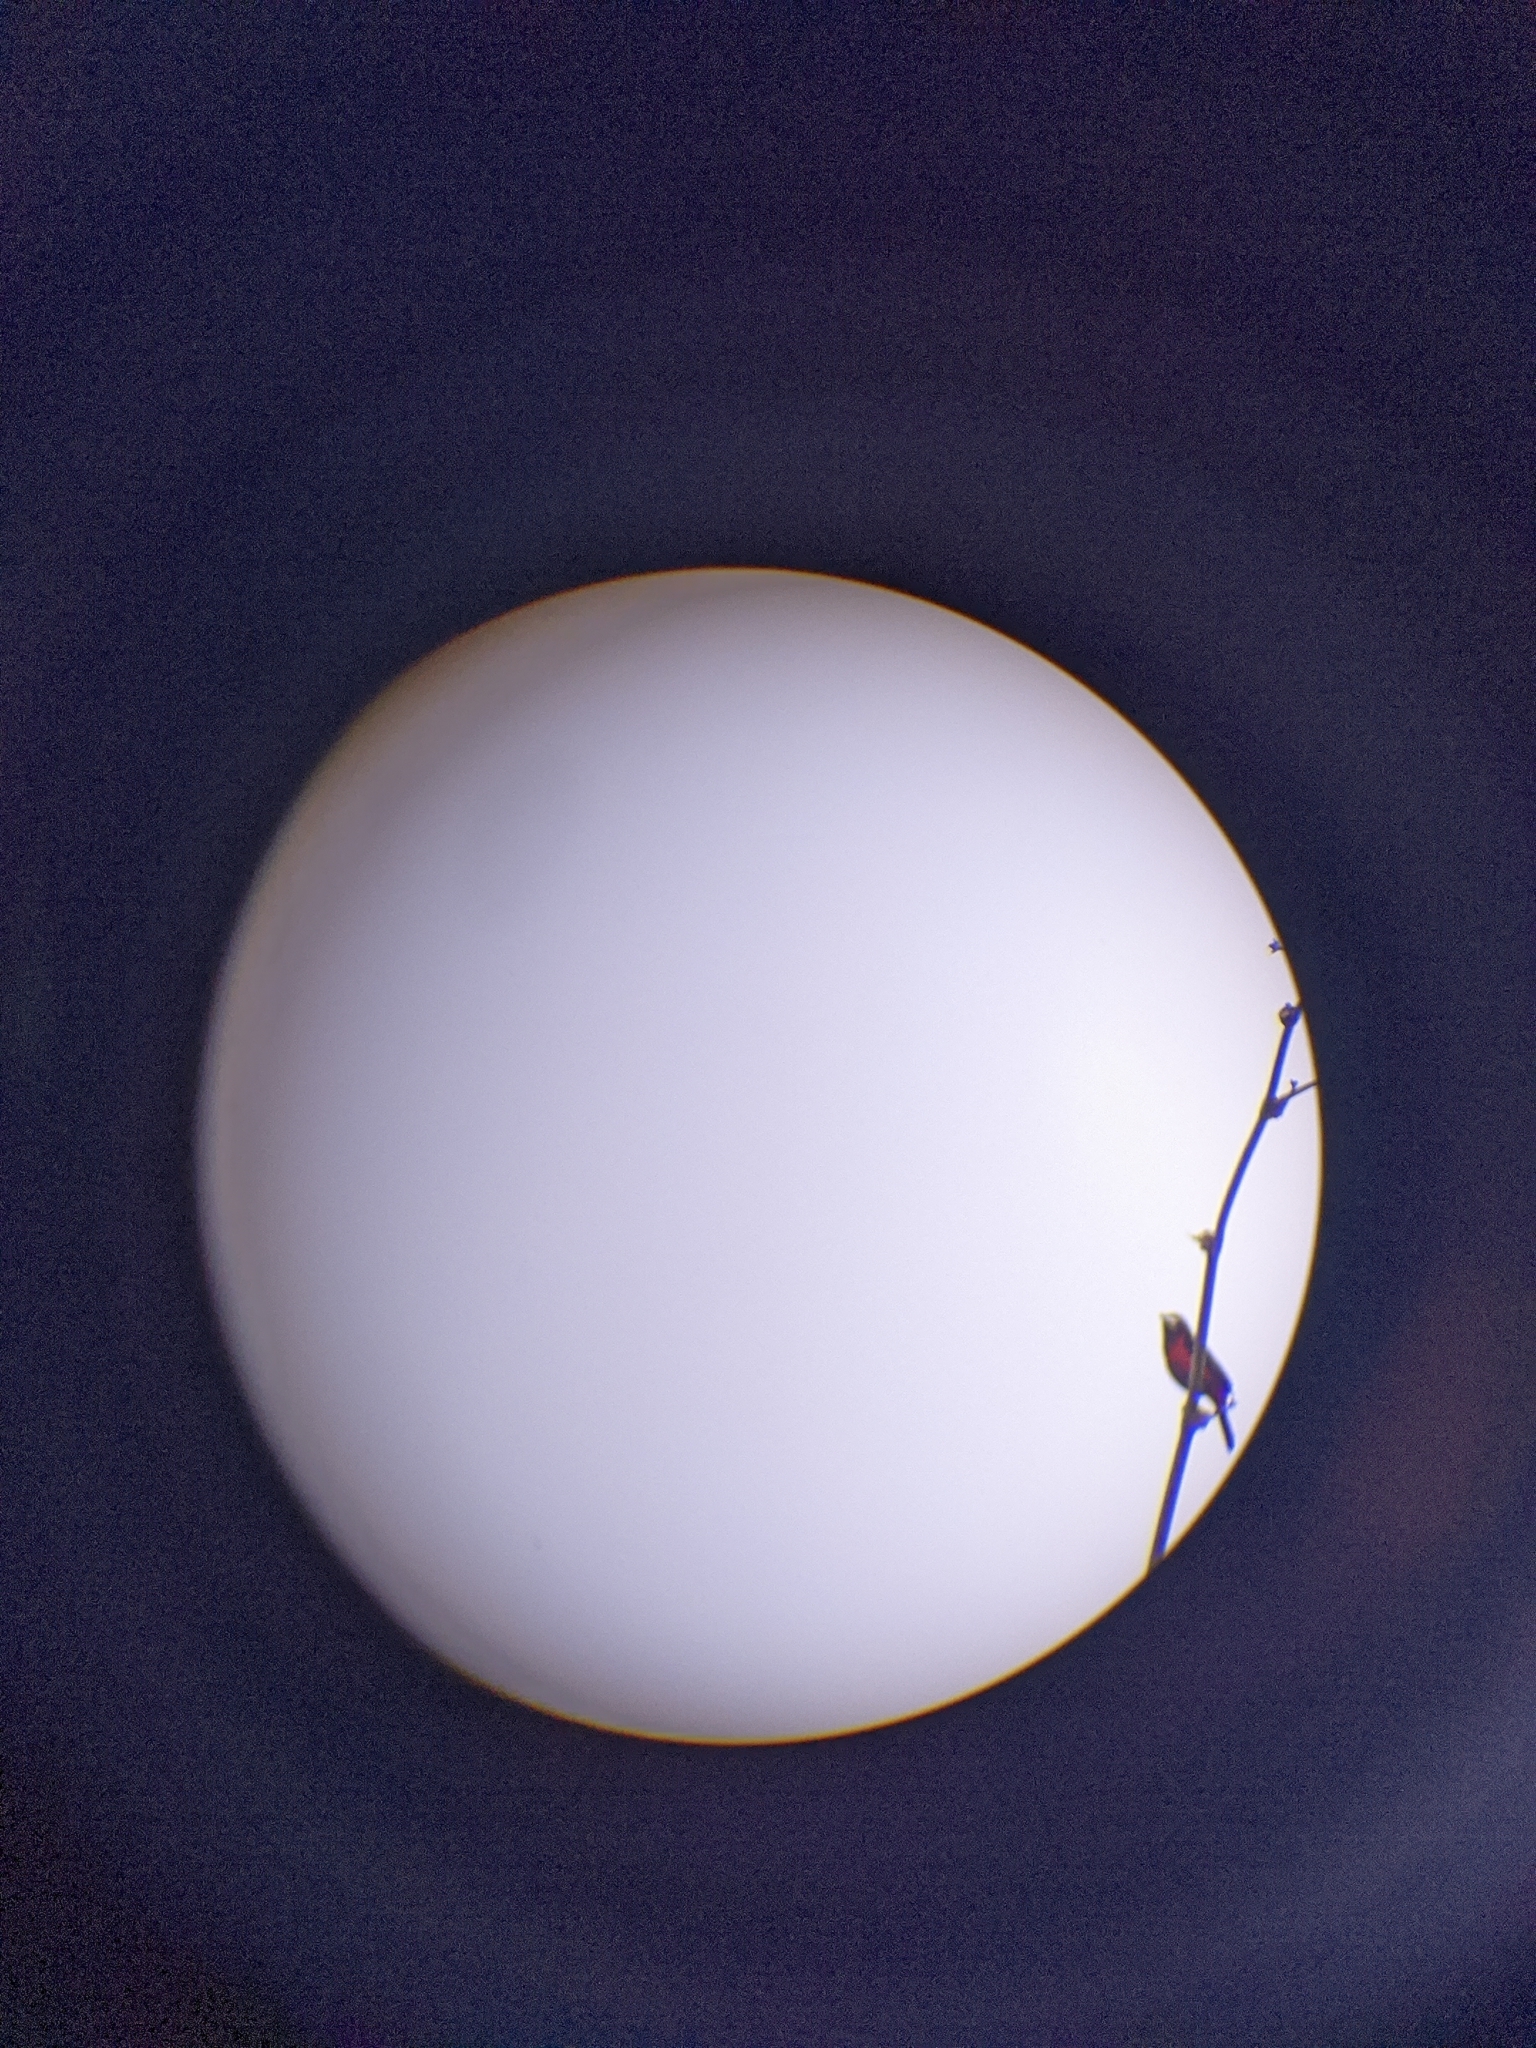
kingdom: Animalia
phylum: Chordata
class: Aves
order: Passeriformes
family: Thraupidae
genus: Ramphocelus
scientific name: Ramphocelus dimidiatus
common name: Crimson-backed tanager
